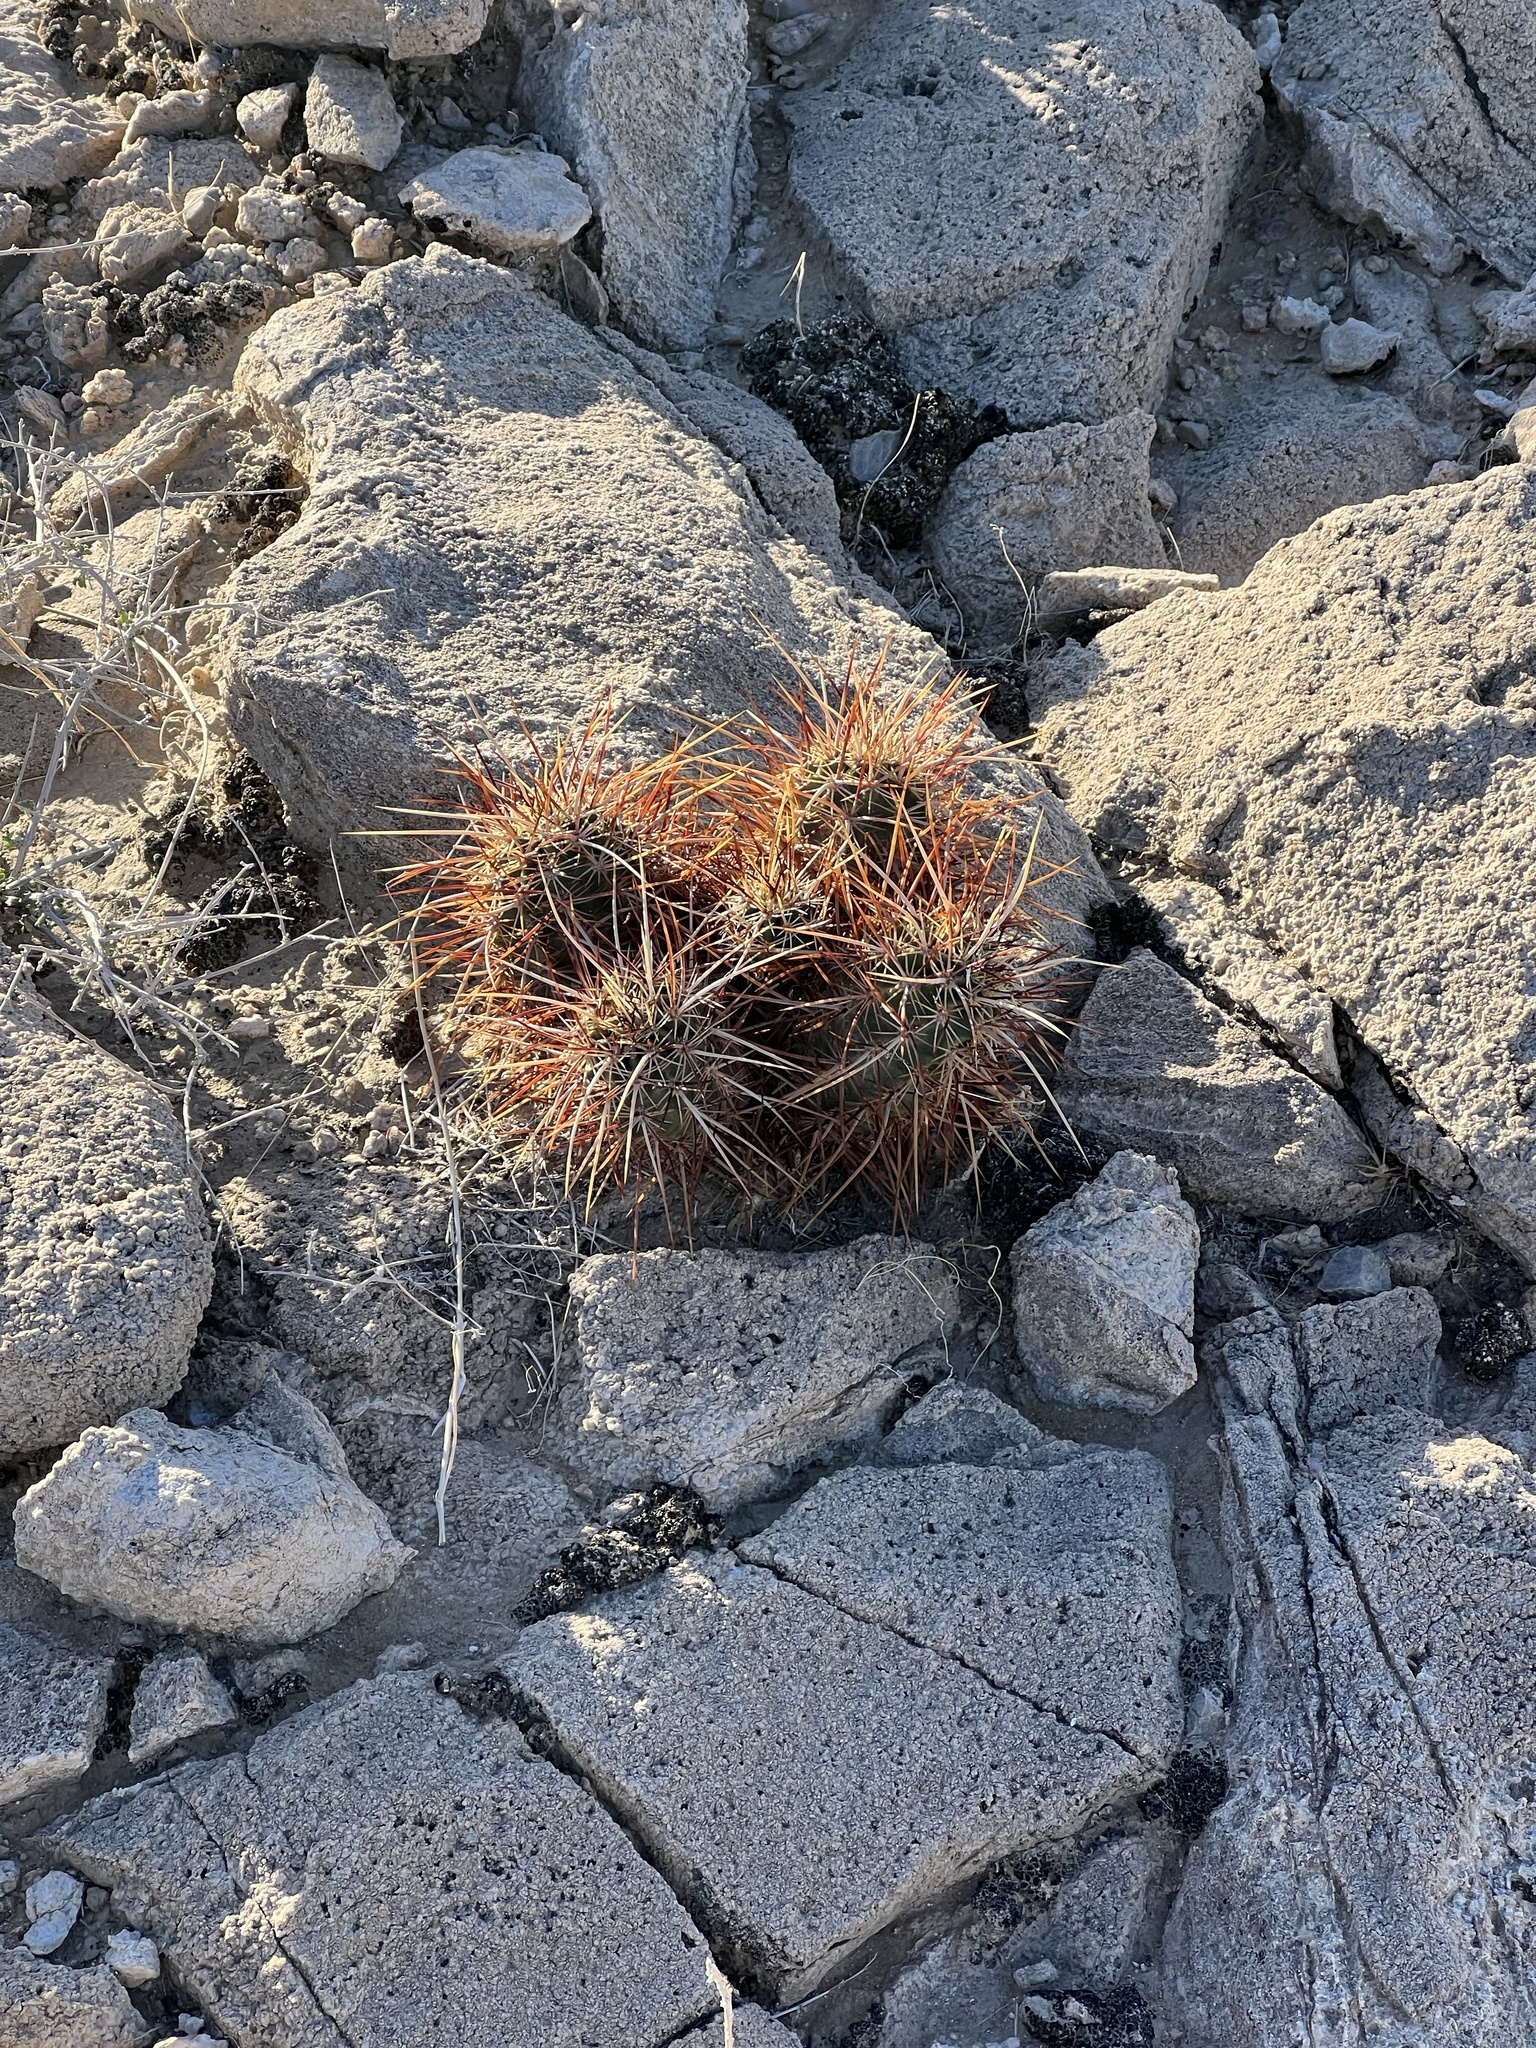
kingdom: Plantae
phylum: Tracheophyta
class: Magnoliopsida
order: Caryophyllales
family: Cactaceae
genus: Echinocereus
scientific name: Echinocereus engelmannii
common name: Engelmann's hedgehog cactus
